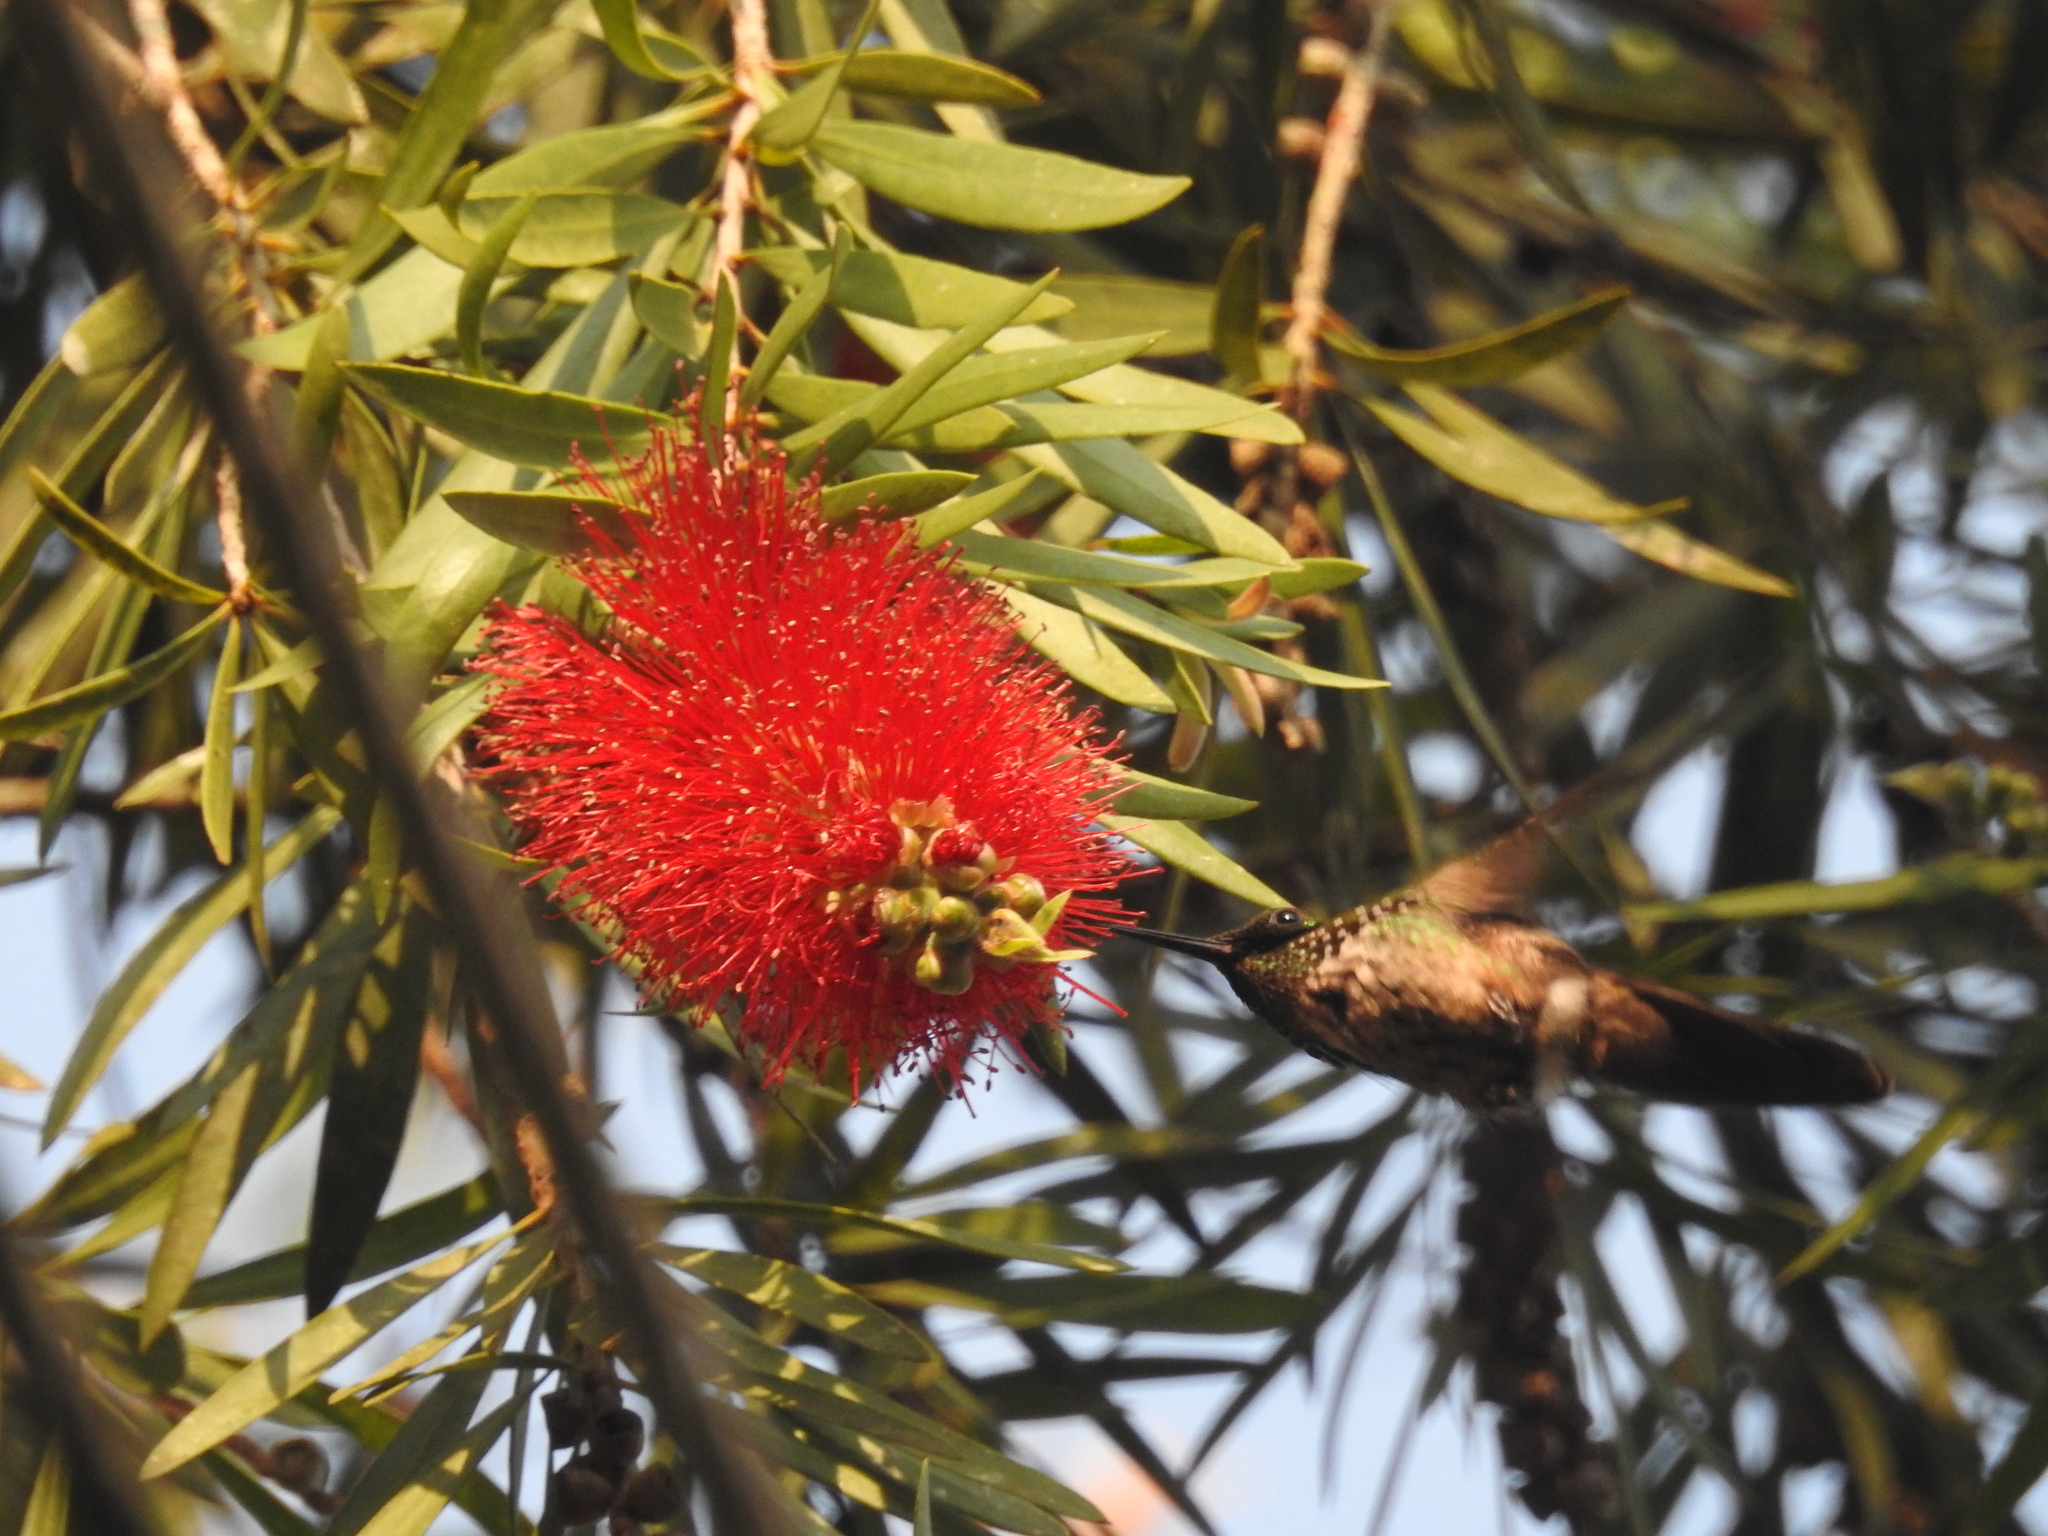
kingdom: Animalia
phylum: Chordata
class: Aves
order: Apodiformes
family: Trochilidae
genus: Lophornis
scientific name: Lophornis chalybeus
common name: Festive coquette
